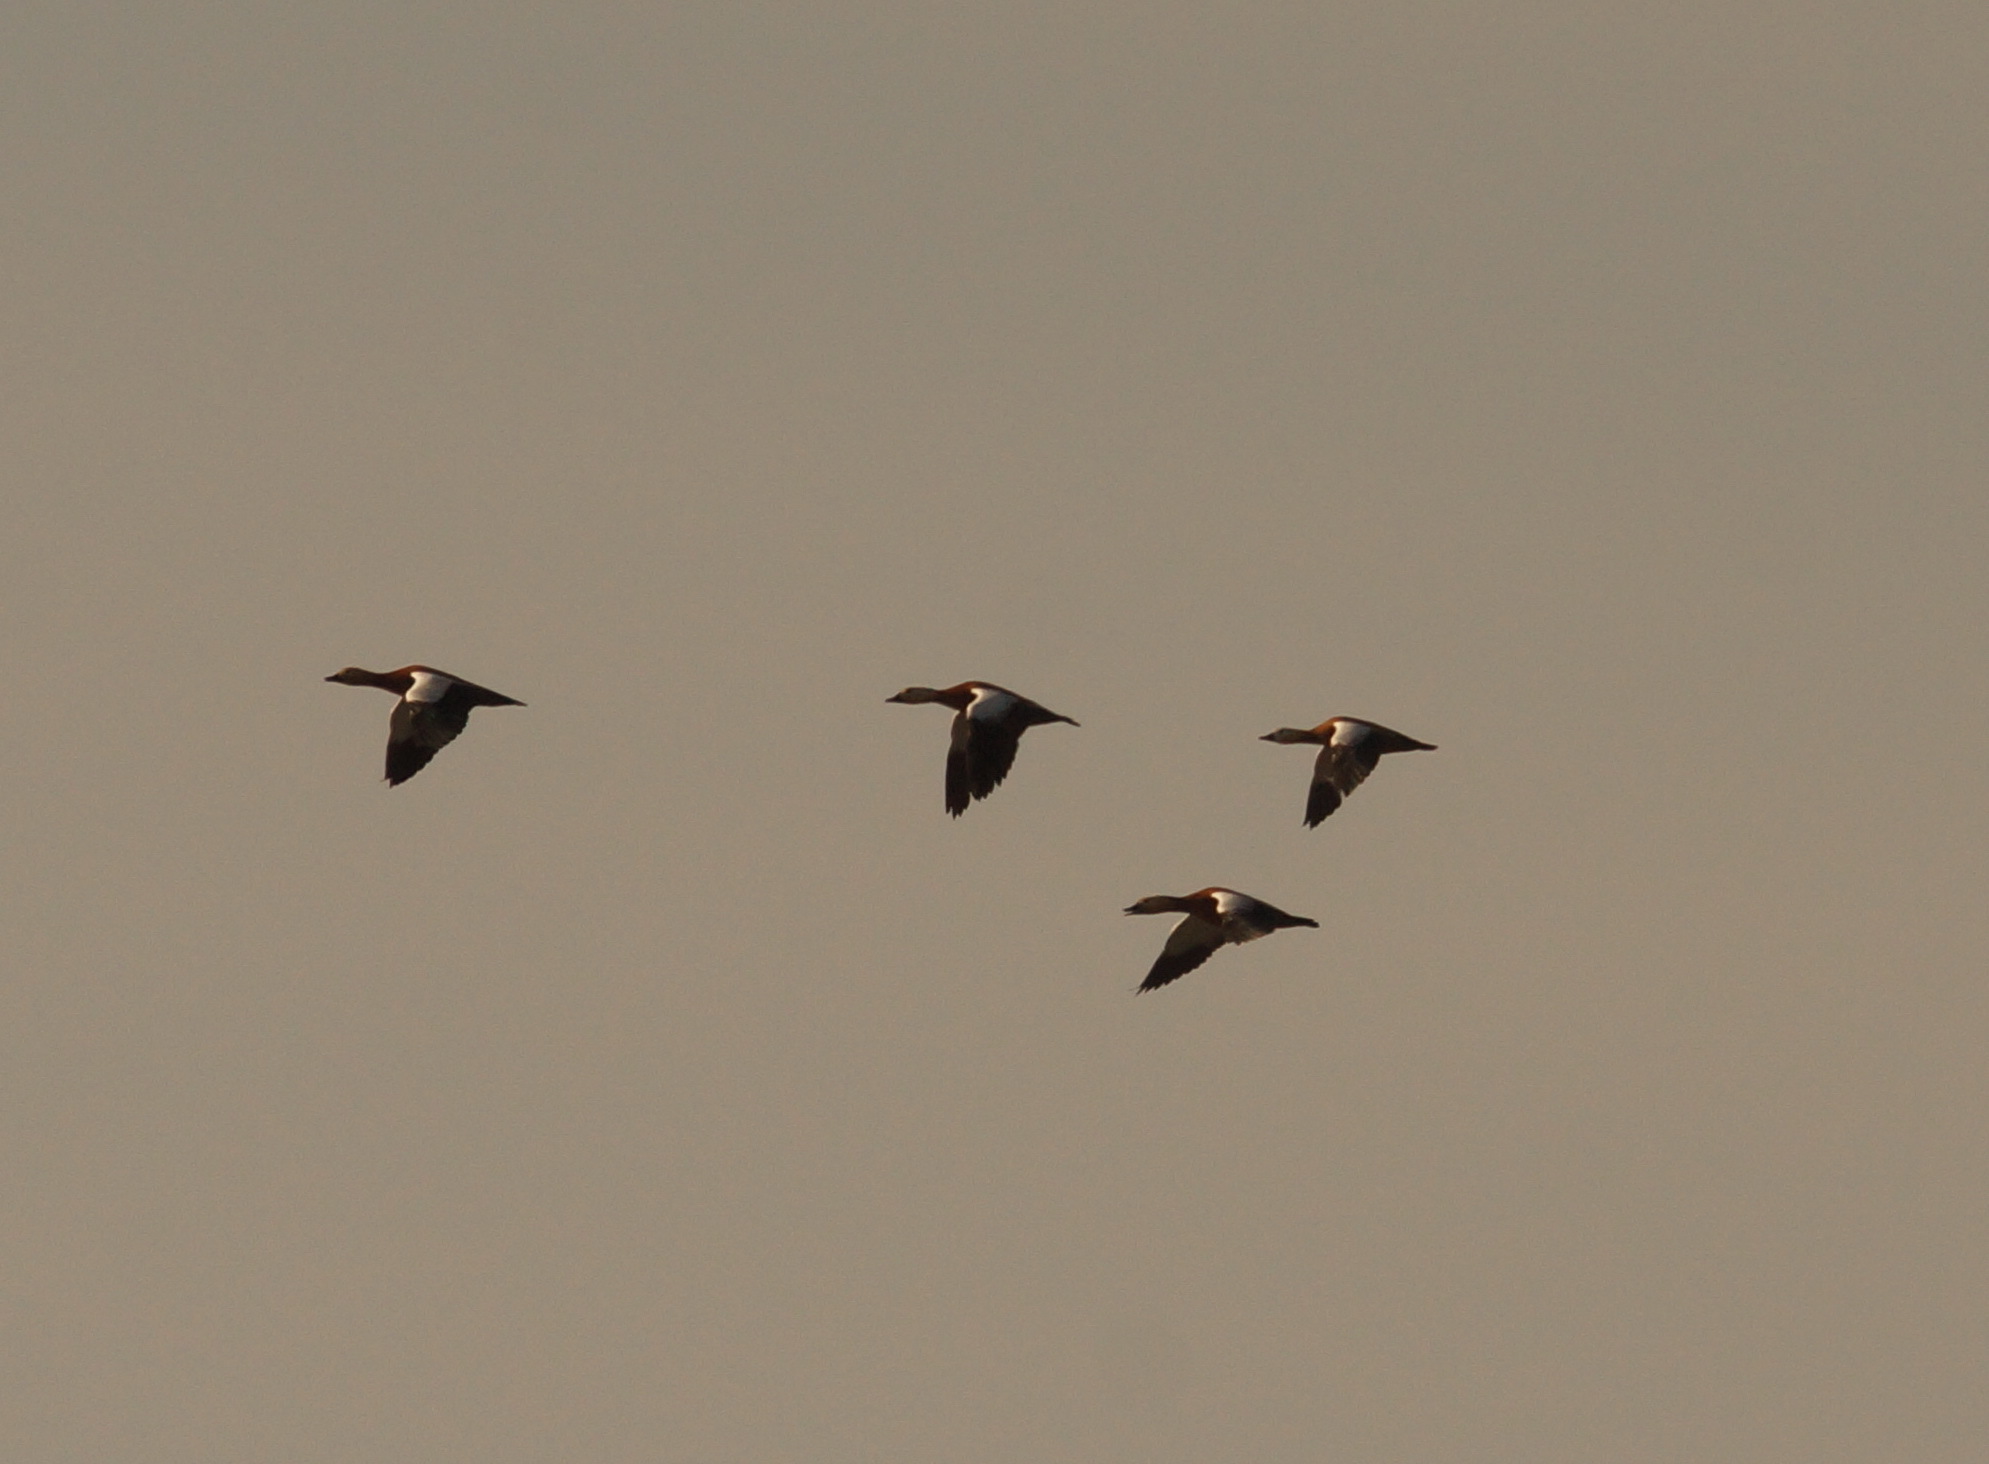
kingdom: Animalia
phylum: Chordata
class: Aves
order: Anseriformes
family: Anatidae
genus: Tadorna
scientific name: Tadorna ferruginea
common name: Ruddy shelduck
